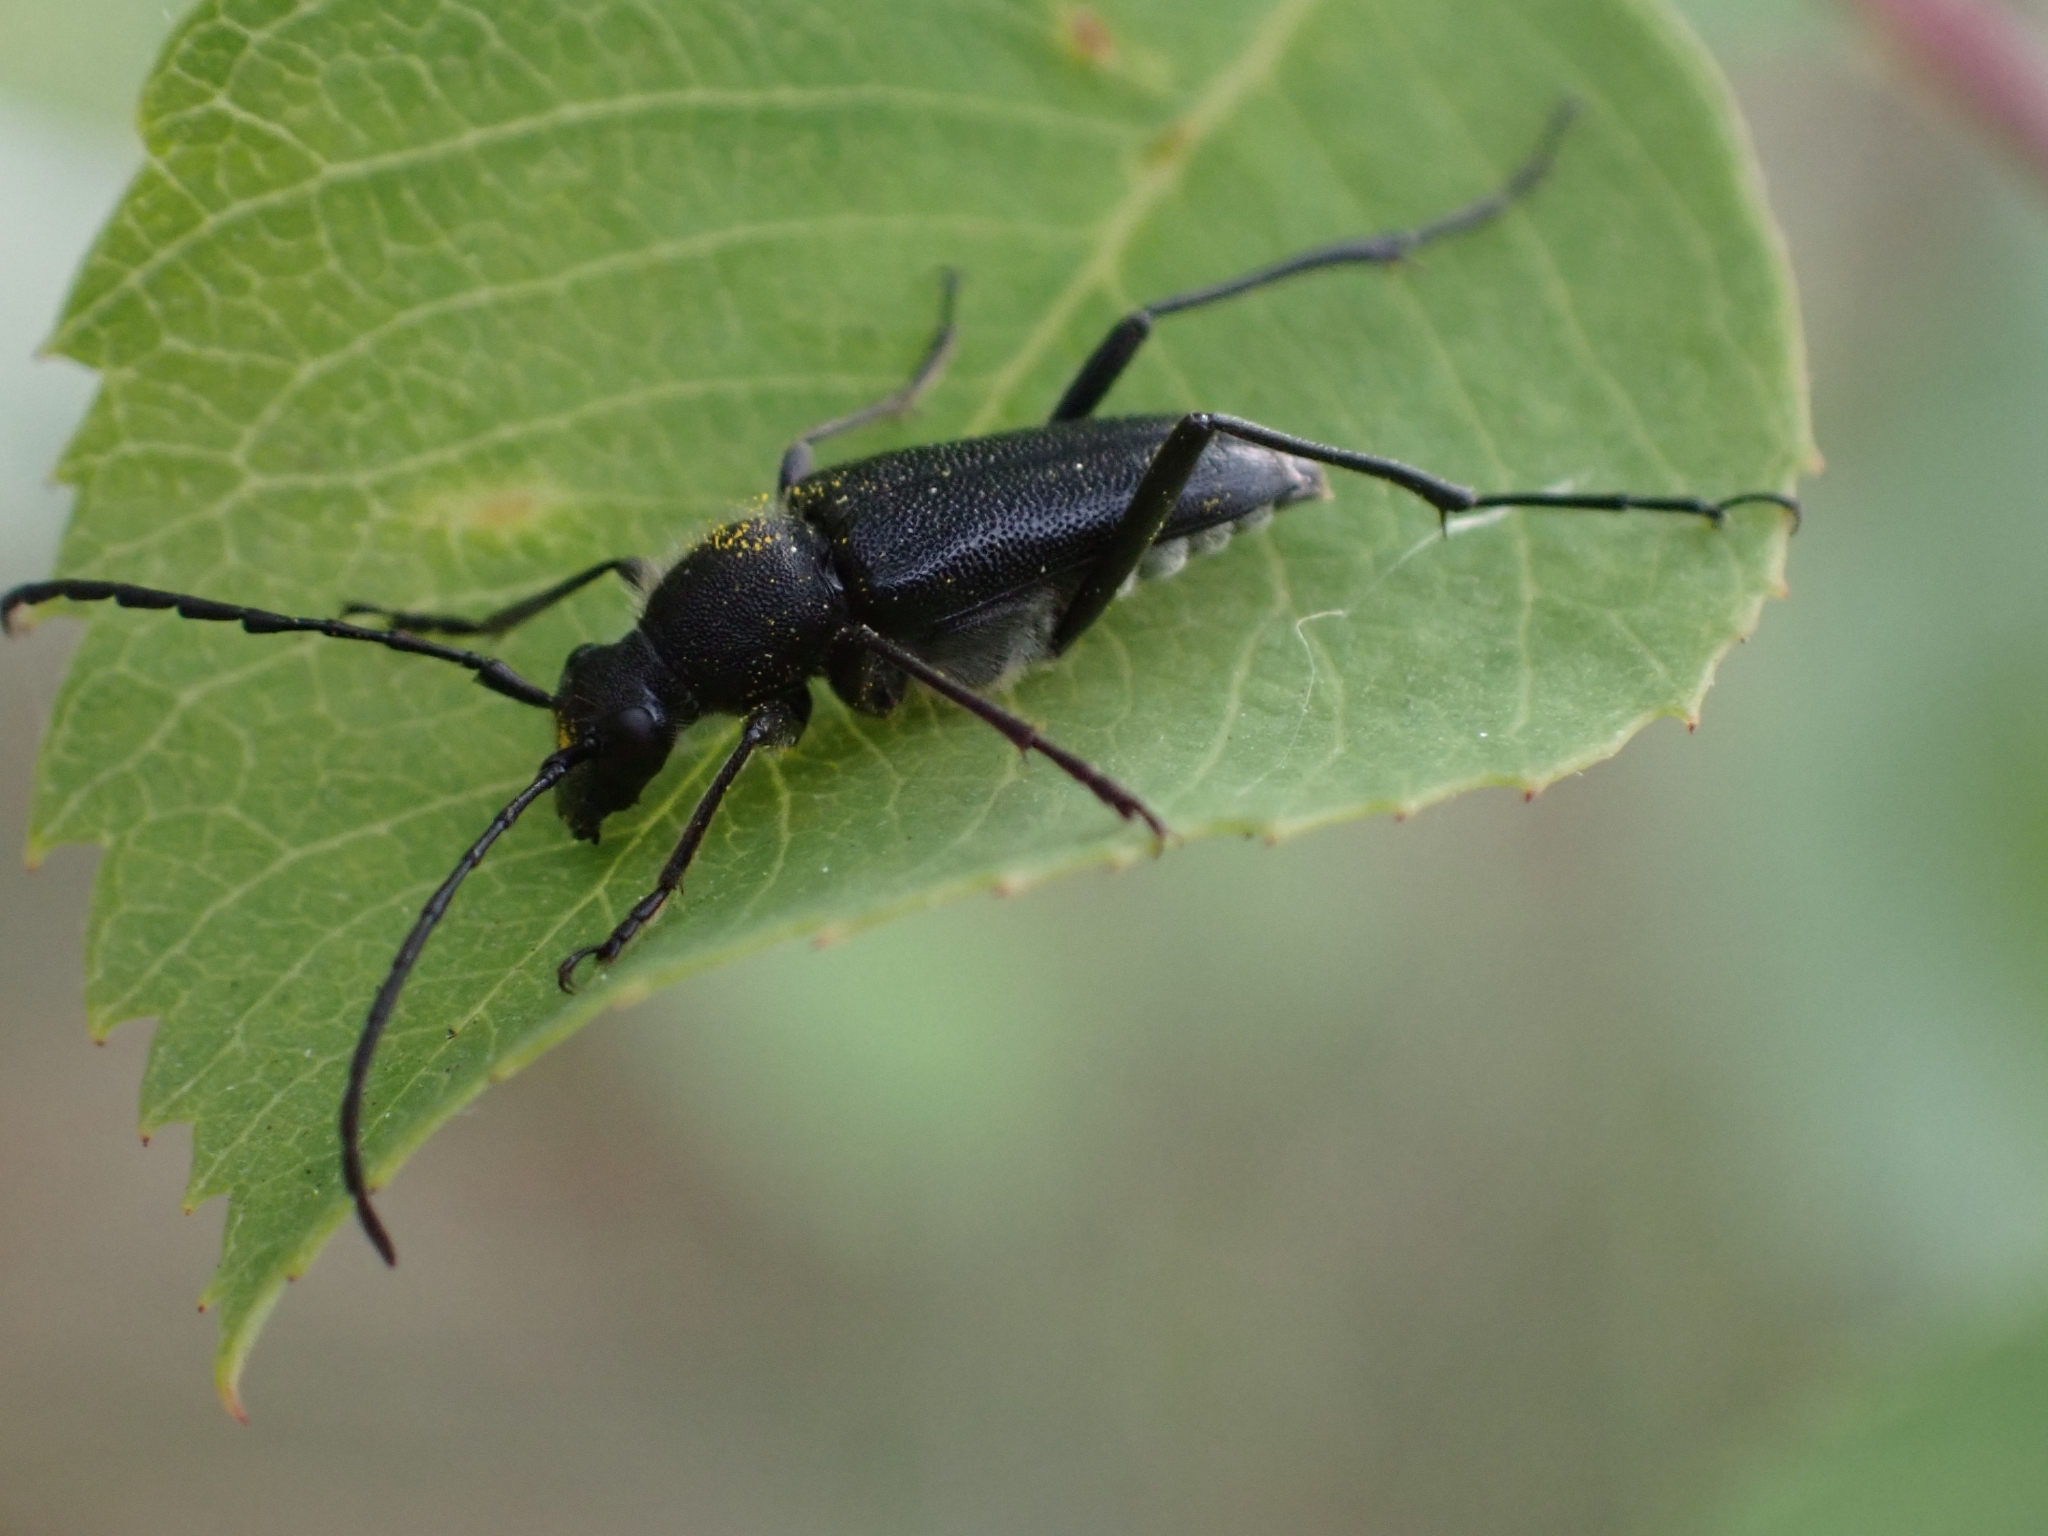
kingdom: Animalia
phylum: Arthropoda
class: Insecta
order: Coleoptera
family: Cerambycidae
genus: Anastrangalia
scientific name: Anastrangalia laetifica
